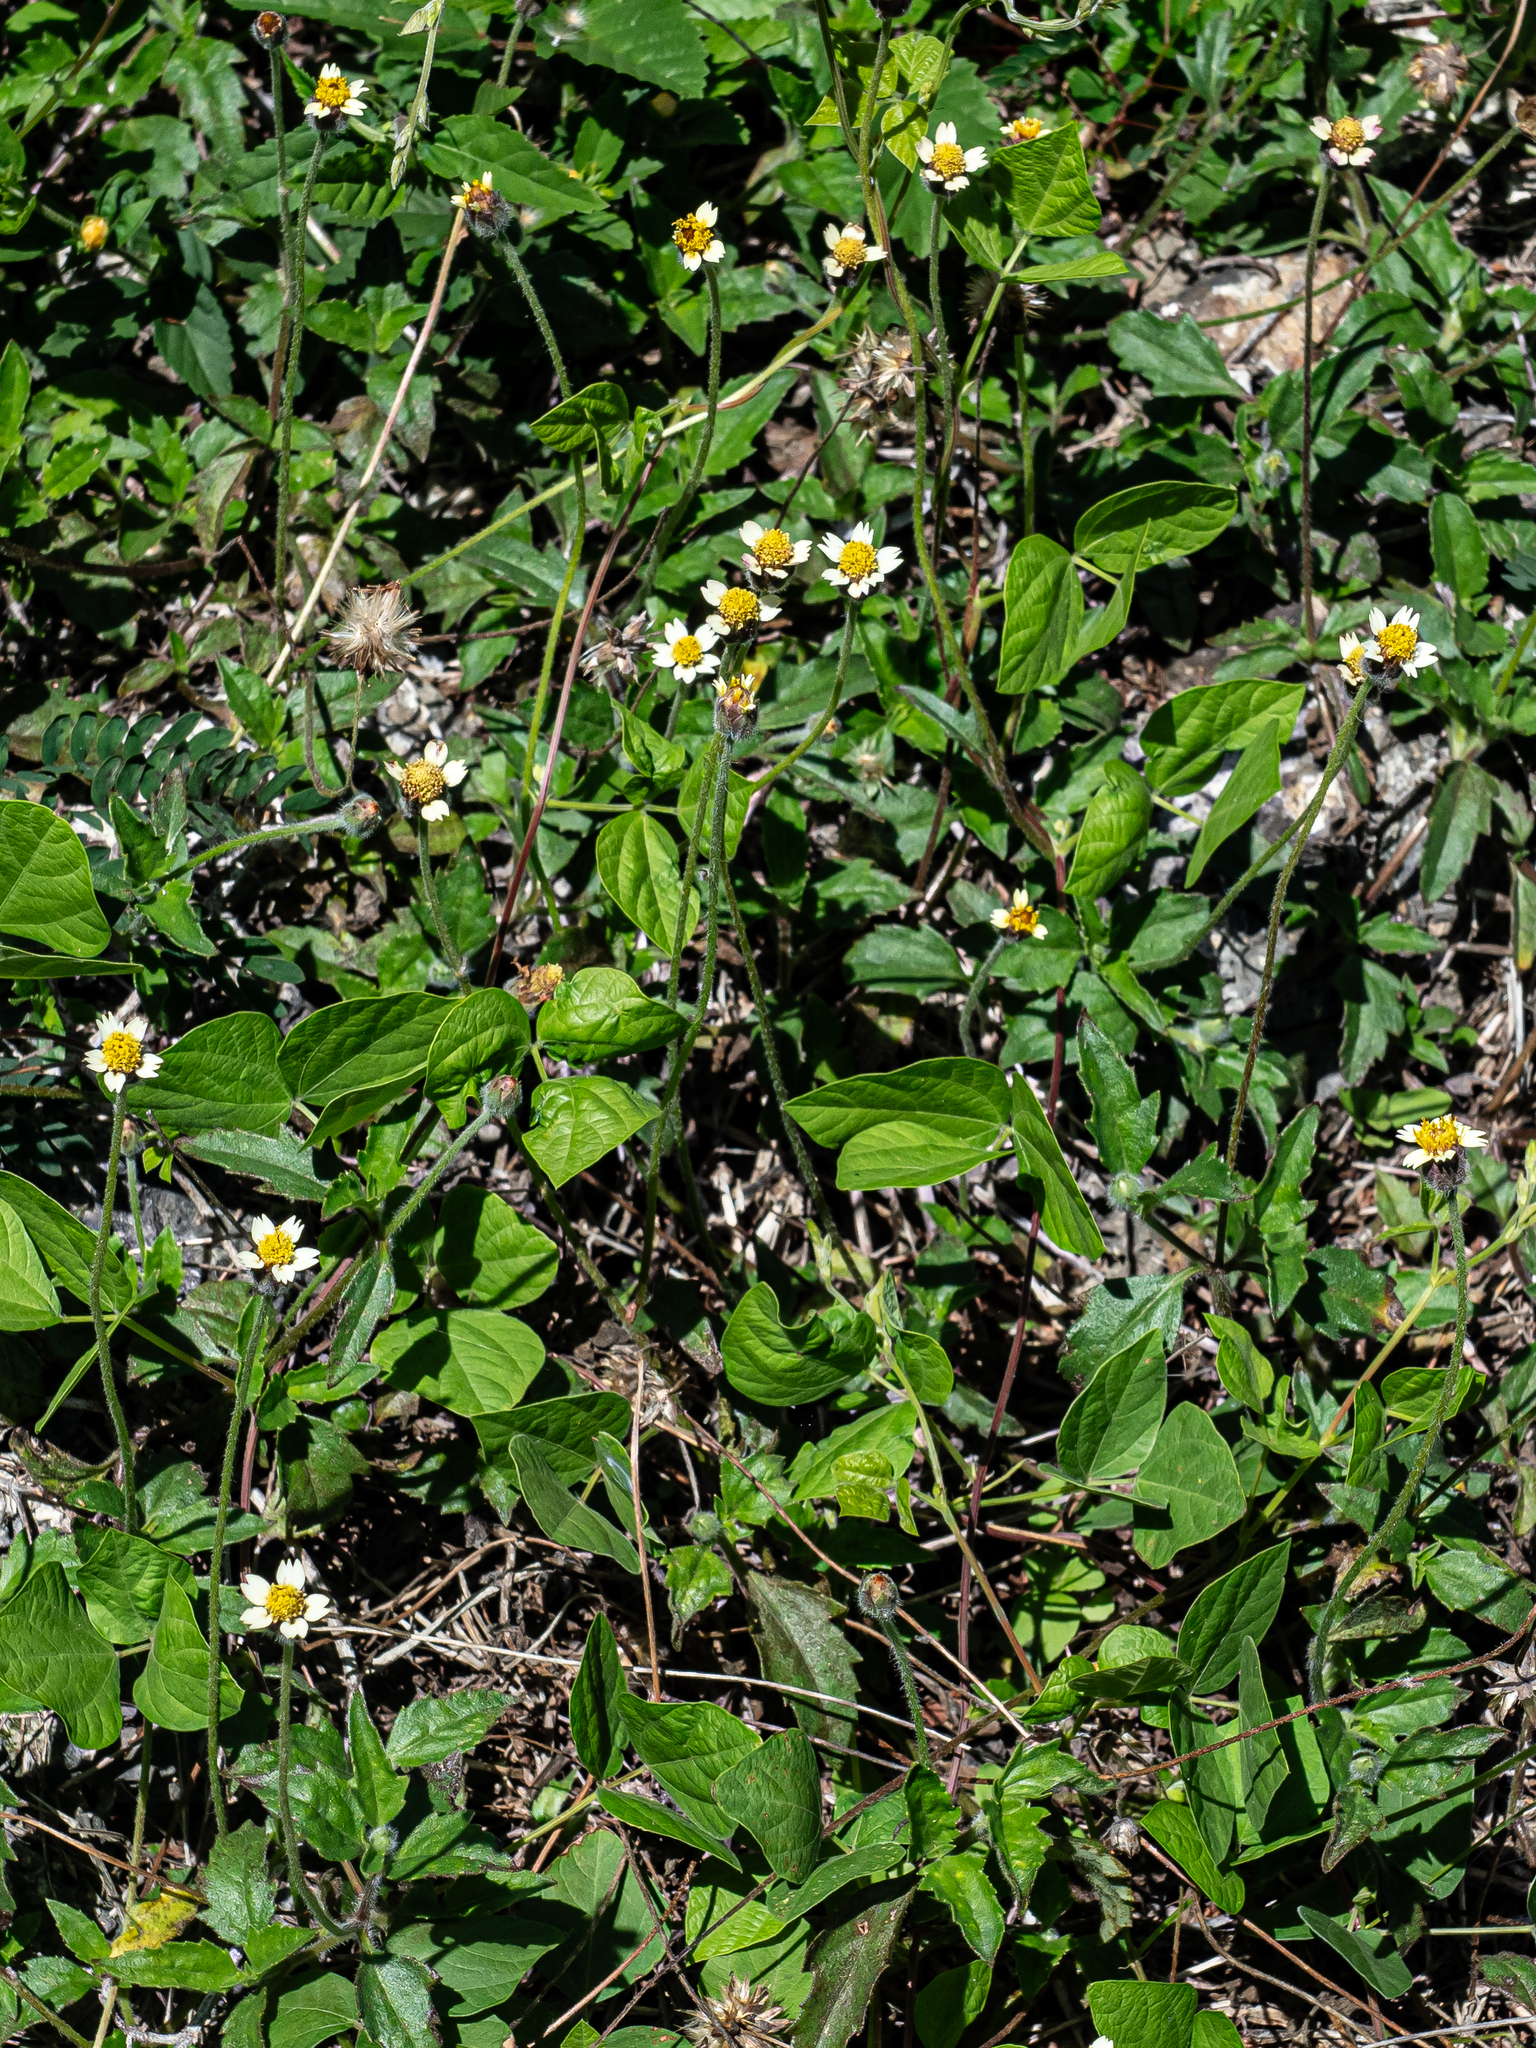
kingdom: Plantae
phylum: Tracheophyta
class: Magnoliopsida
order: Asterales
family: Asteraceae
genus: Tridax
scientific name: Tridax procumbens
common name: Coatbuttons
